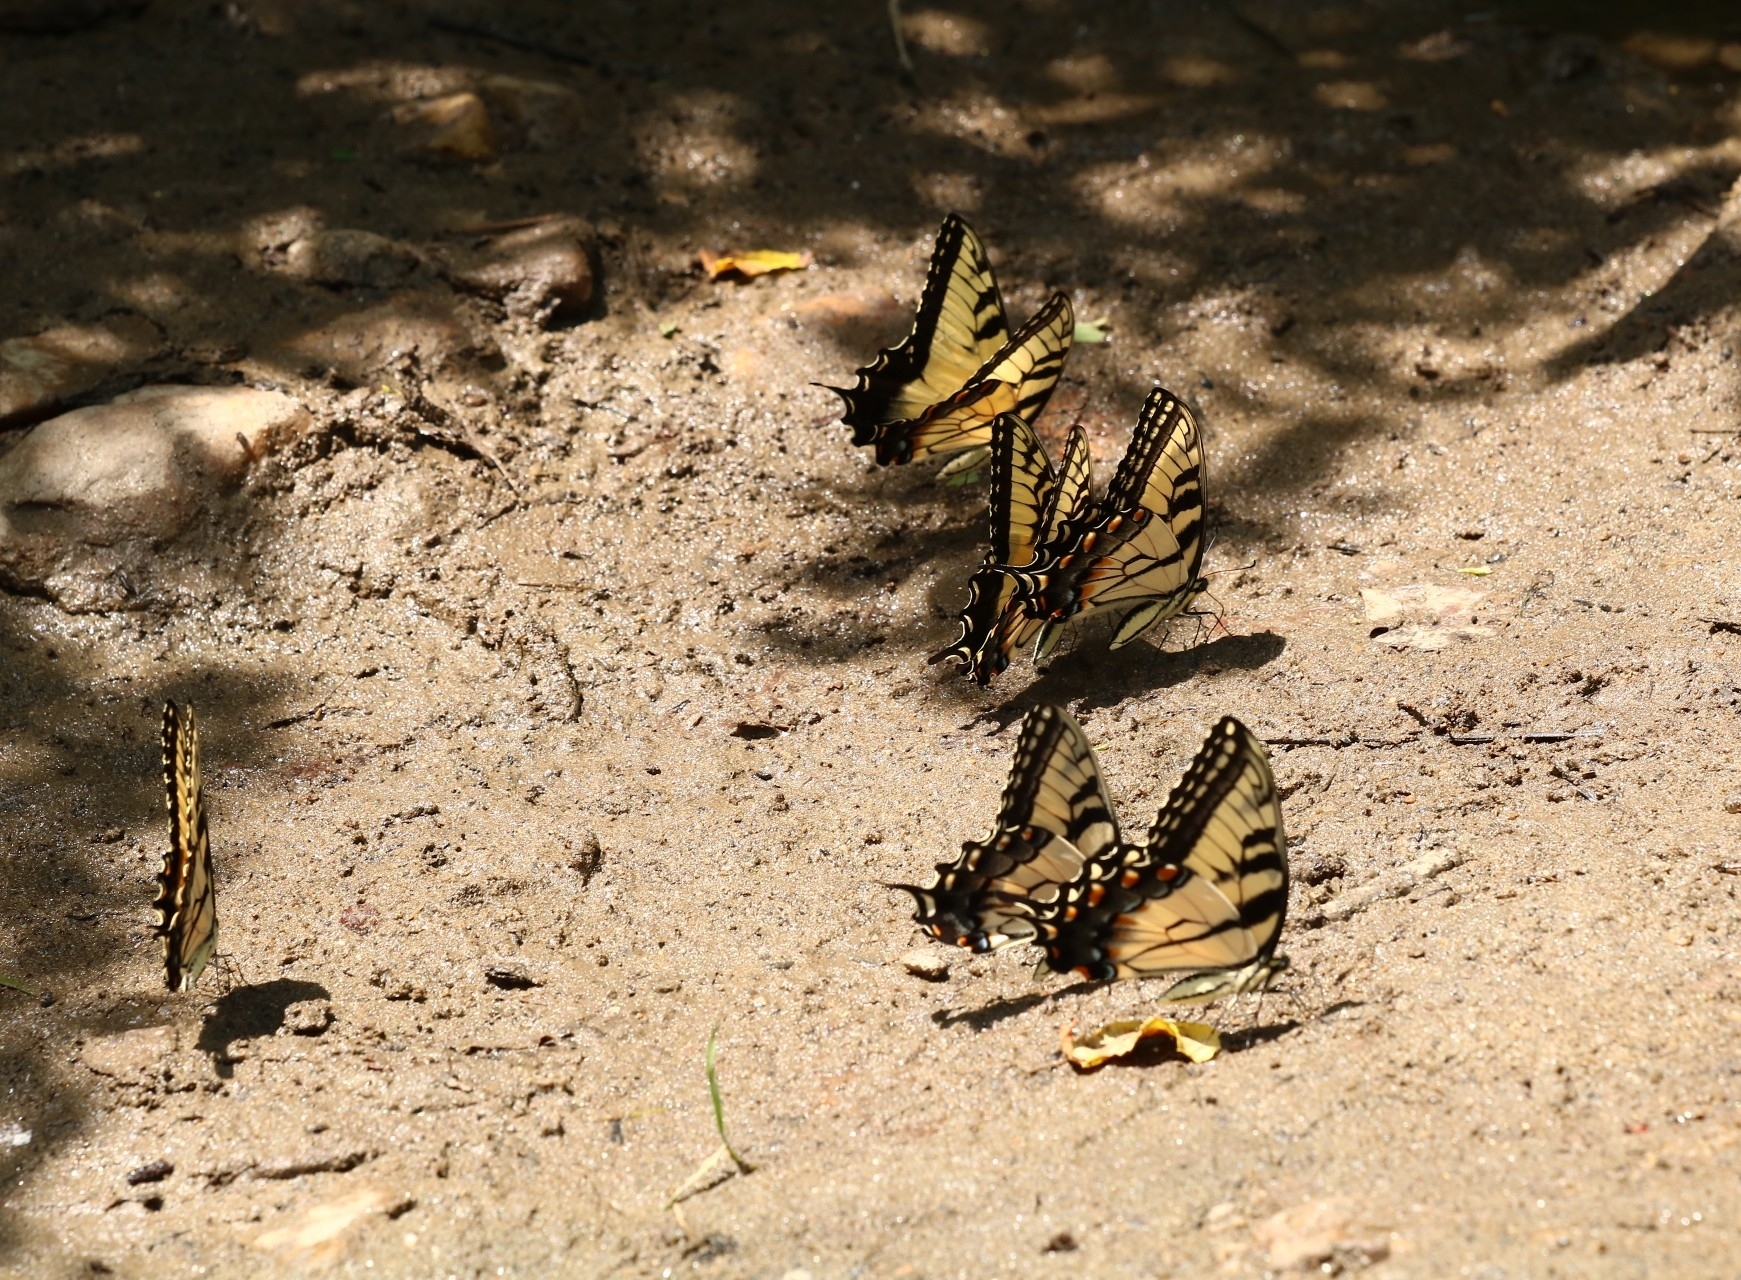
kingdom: Animalia
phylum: Arthropoda
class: Insecta
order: Lepidoptera
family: Papilionidae
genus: Papilio
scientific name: Papilio glaucus
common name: Tiger swallowtail
